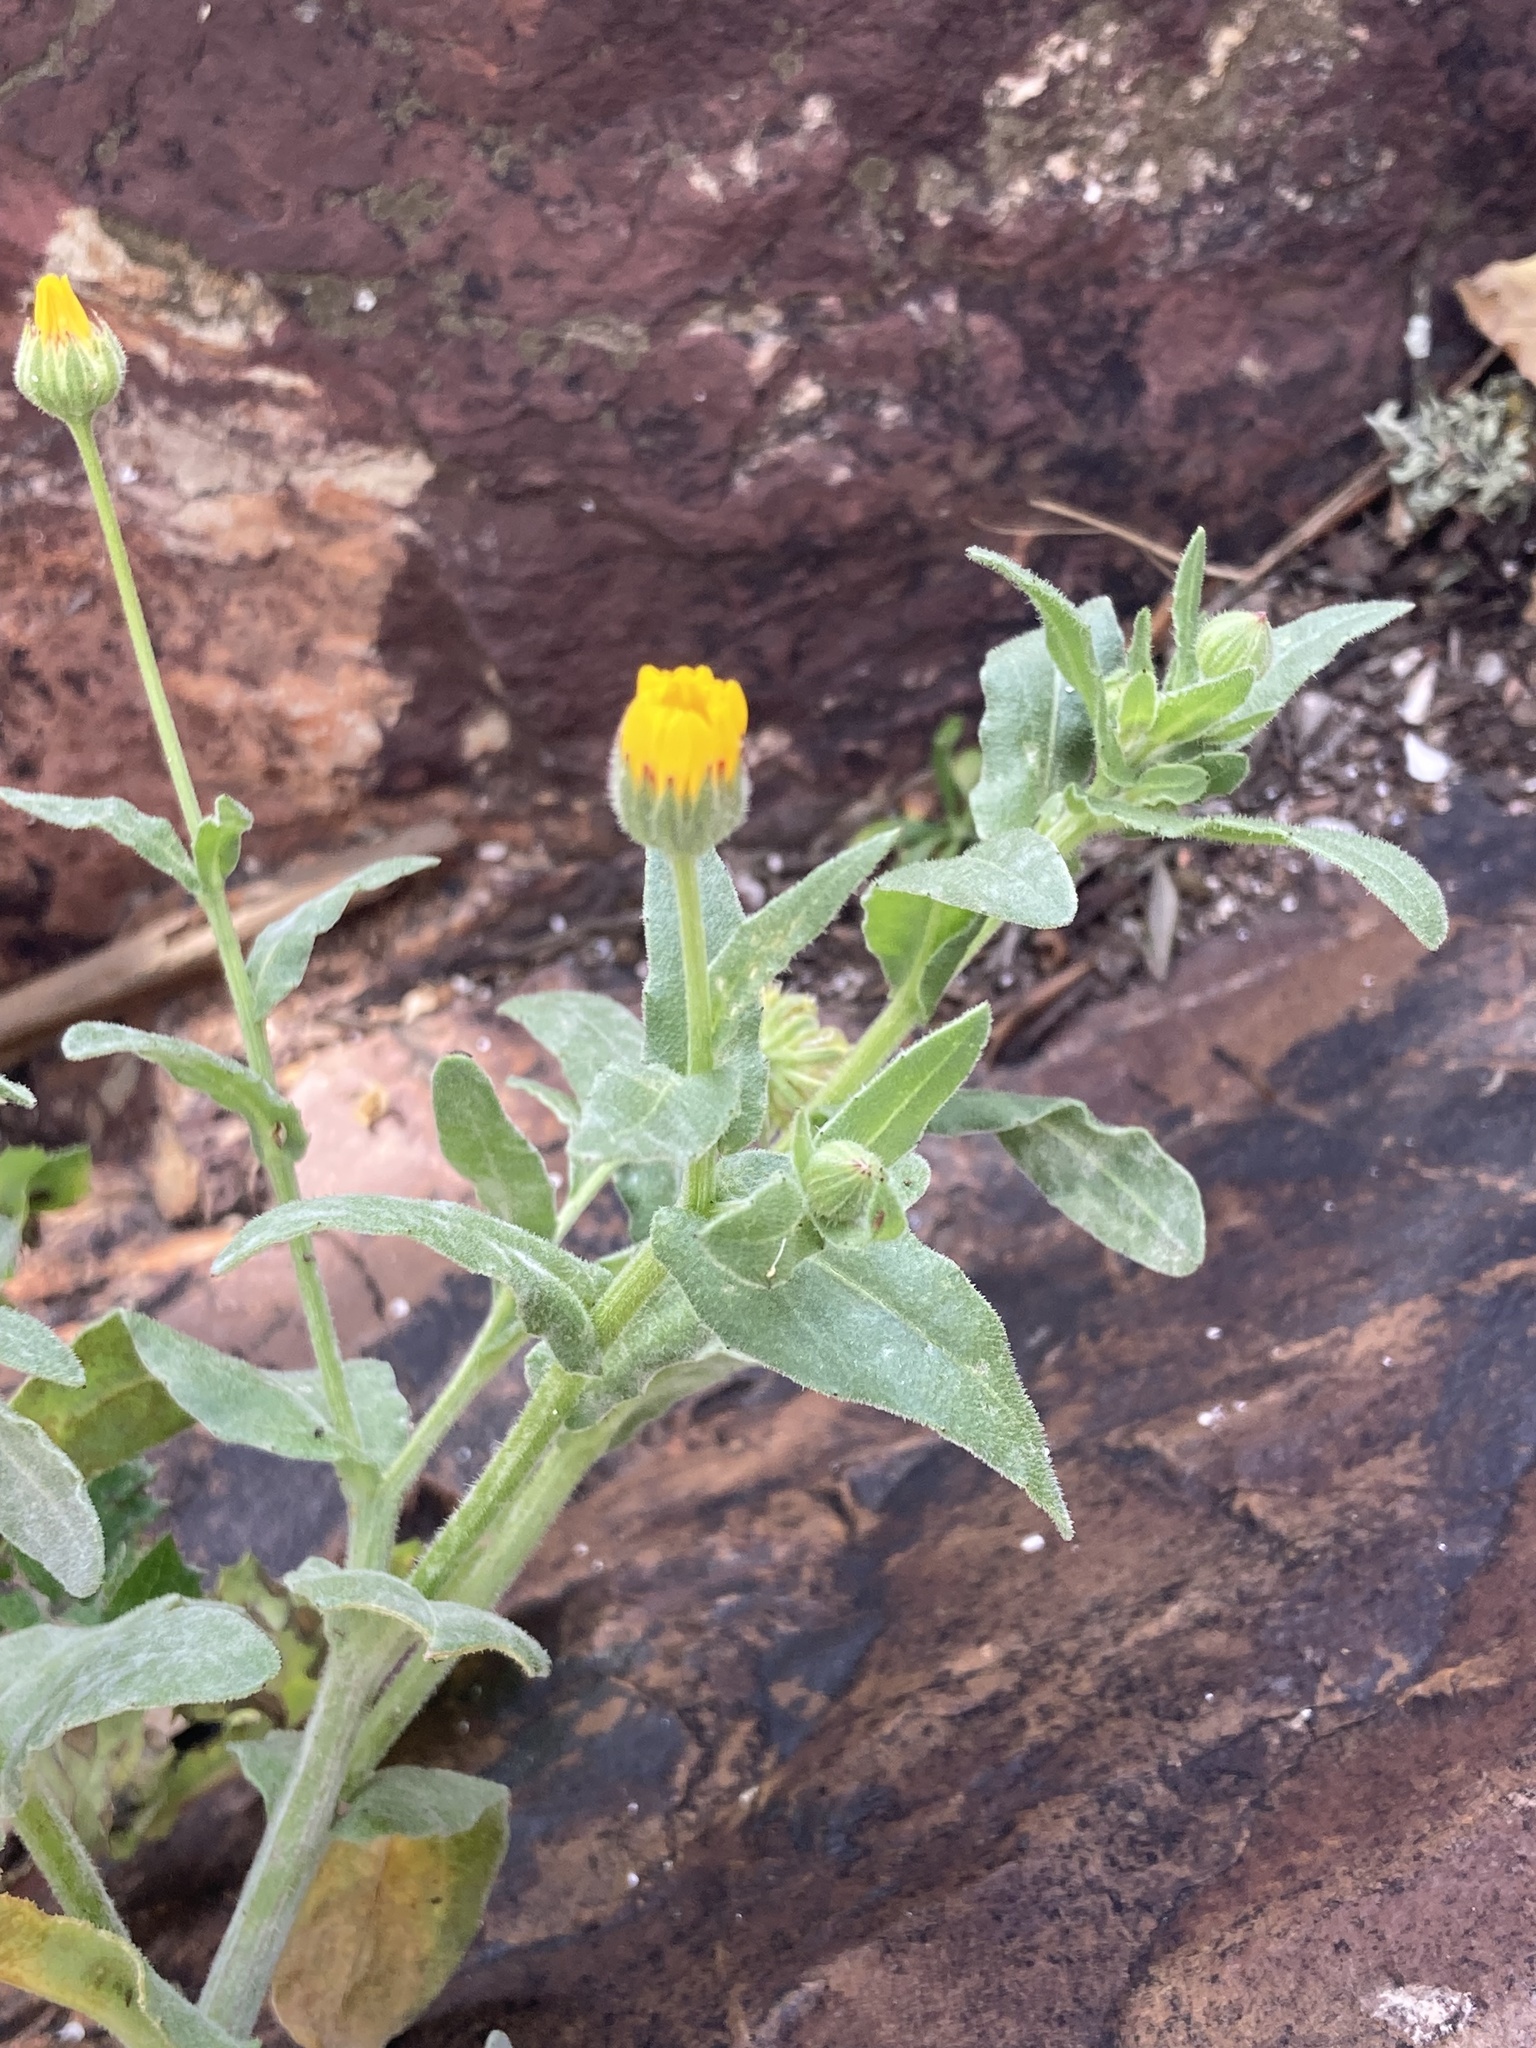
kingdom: Plantae
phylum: Tracheophyta
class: Magnoliopsida
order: Asterales
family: Asteraceae
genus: Calendula
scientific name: Calendula arvensis
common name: Field marigold
